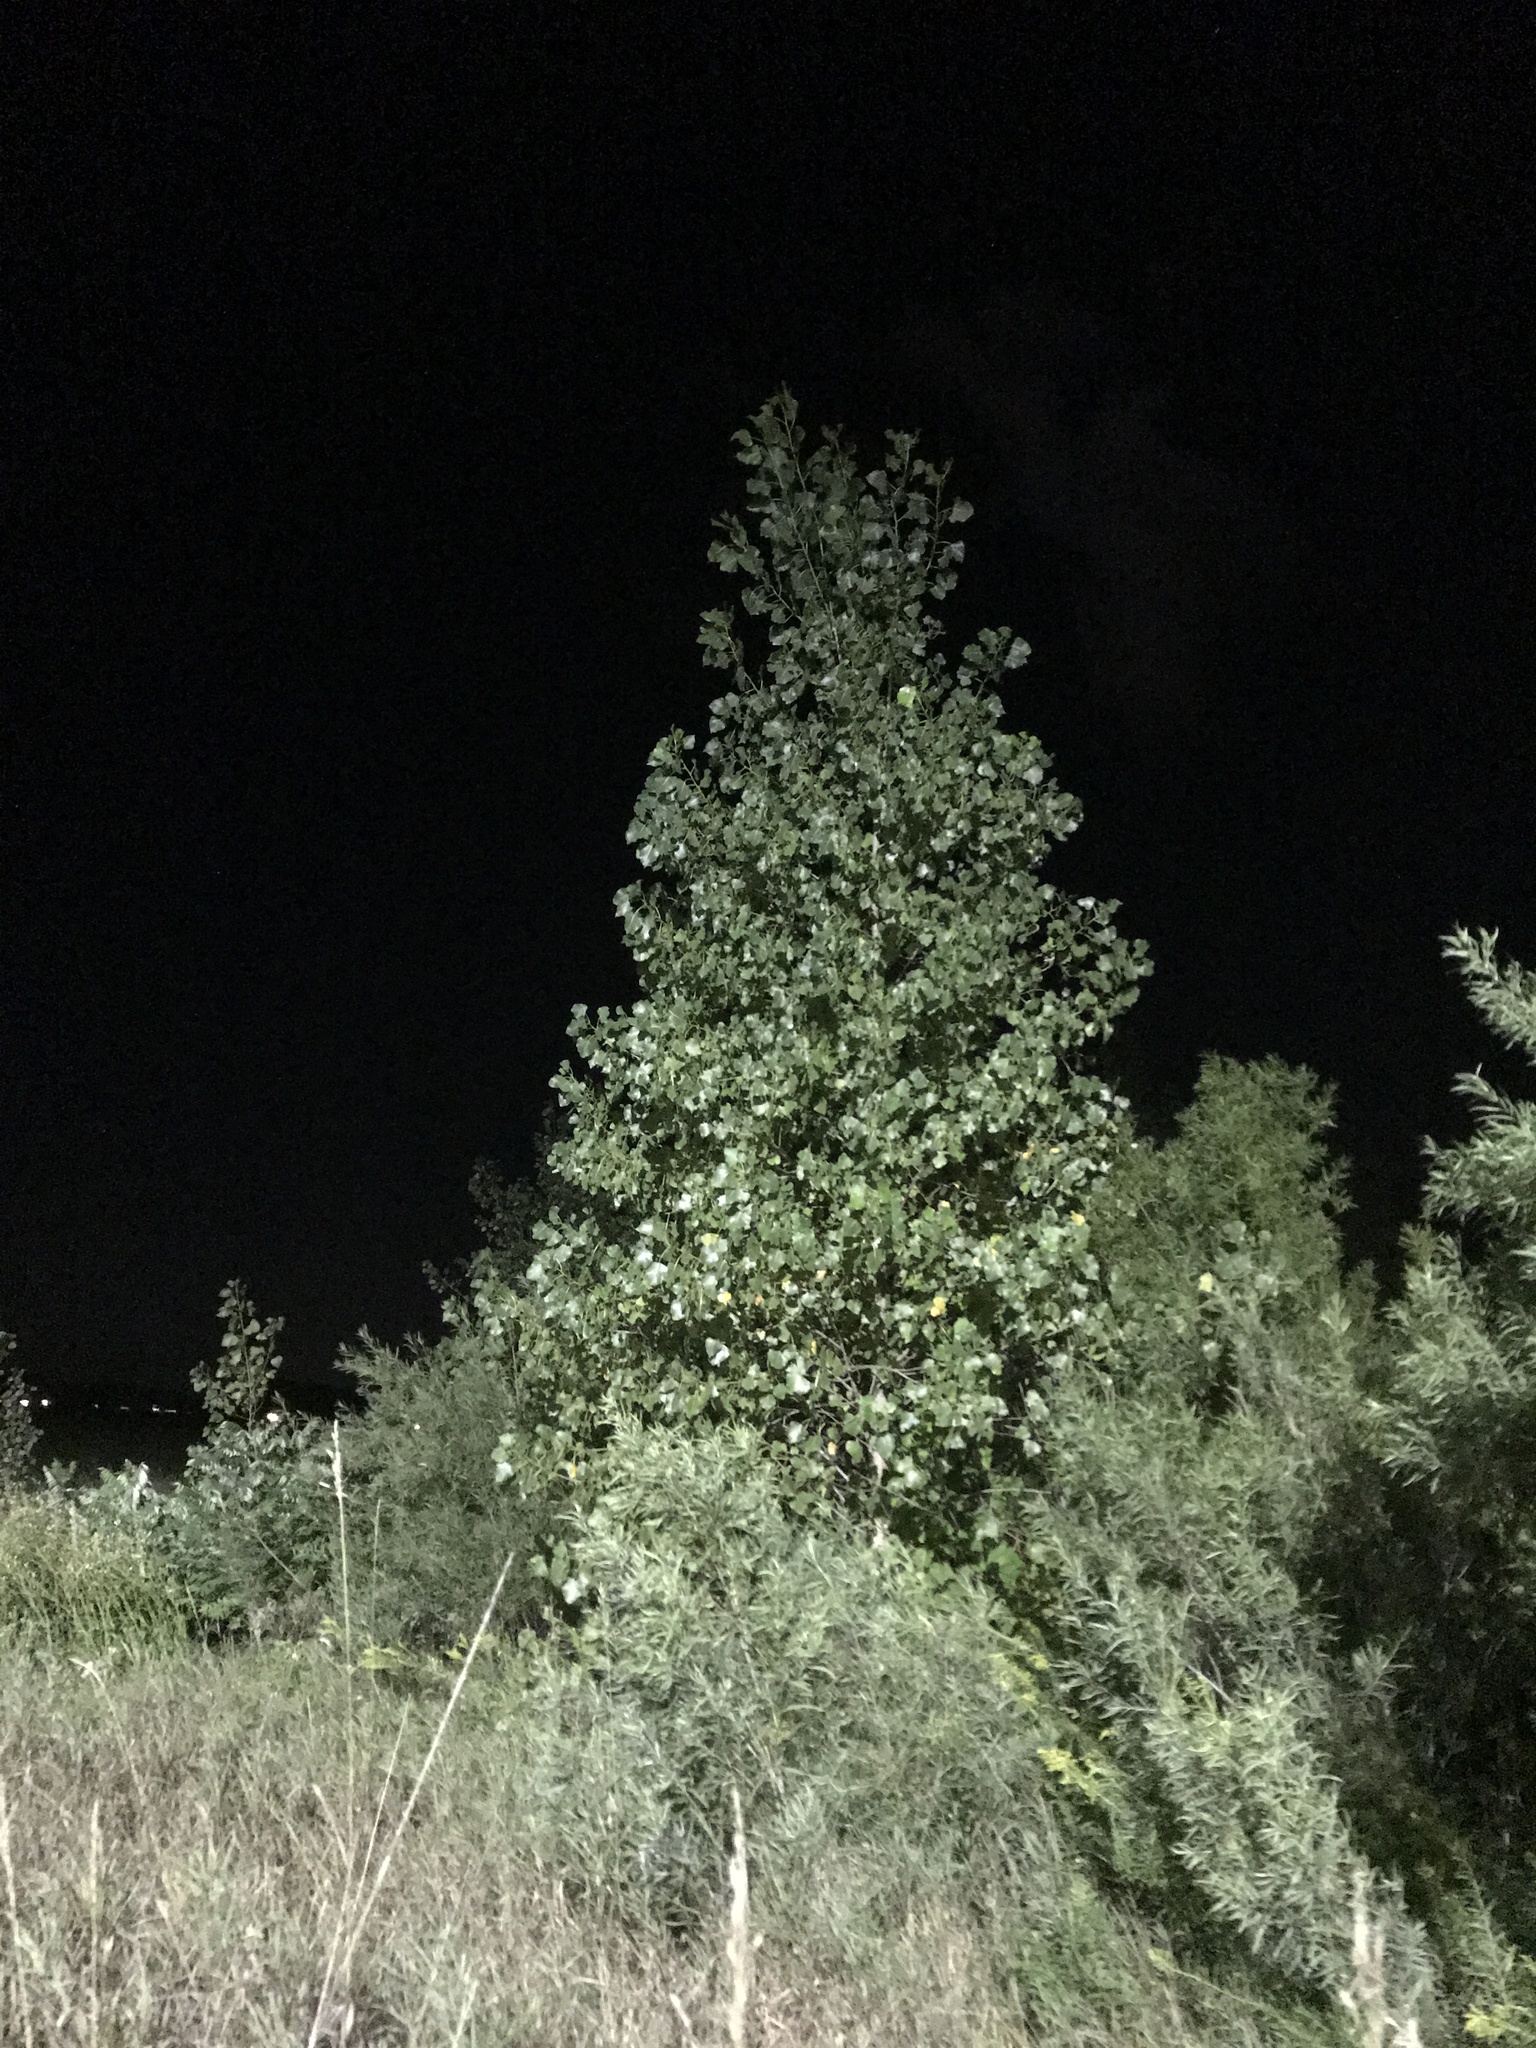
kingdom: Plantae
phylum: Tracheophyta
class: Magnoliopsida
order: Malpighiales
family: Salicaceae
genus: Populus
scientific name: Populus deltoides
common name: Eastern cottonwood
